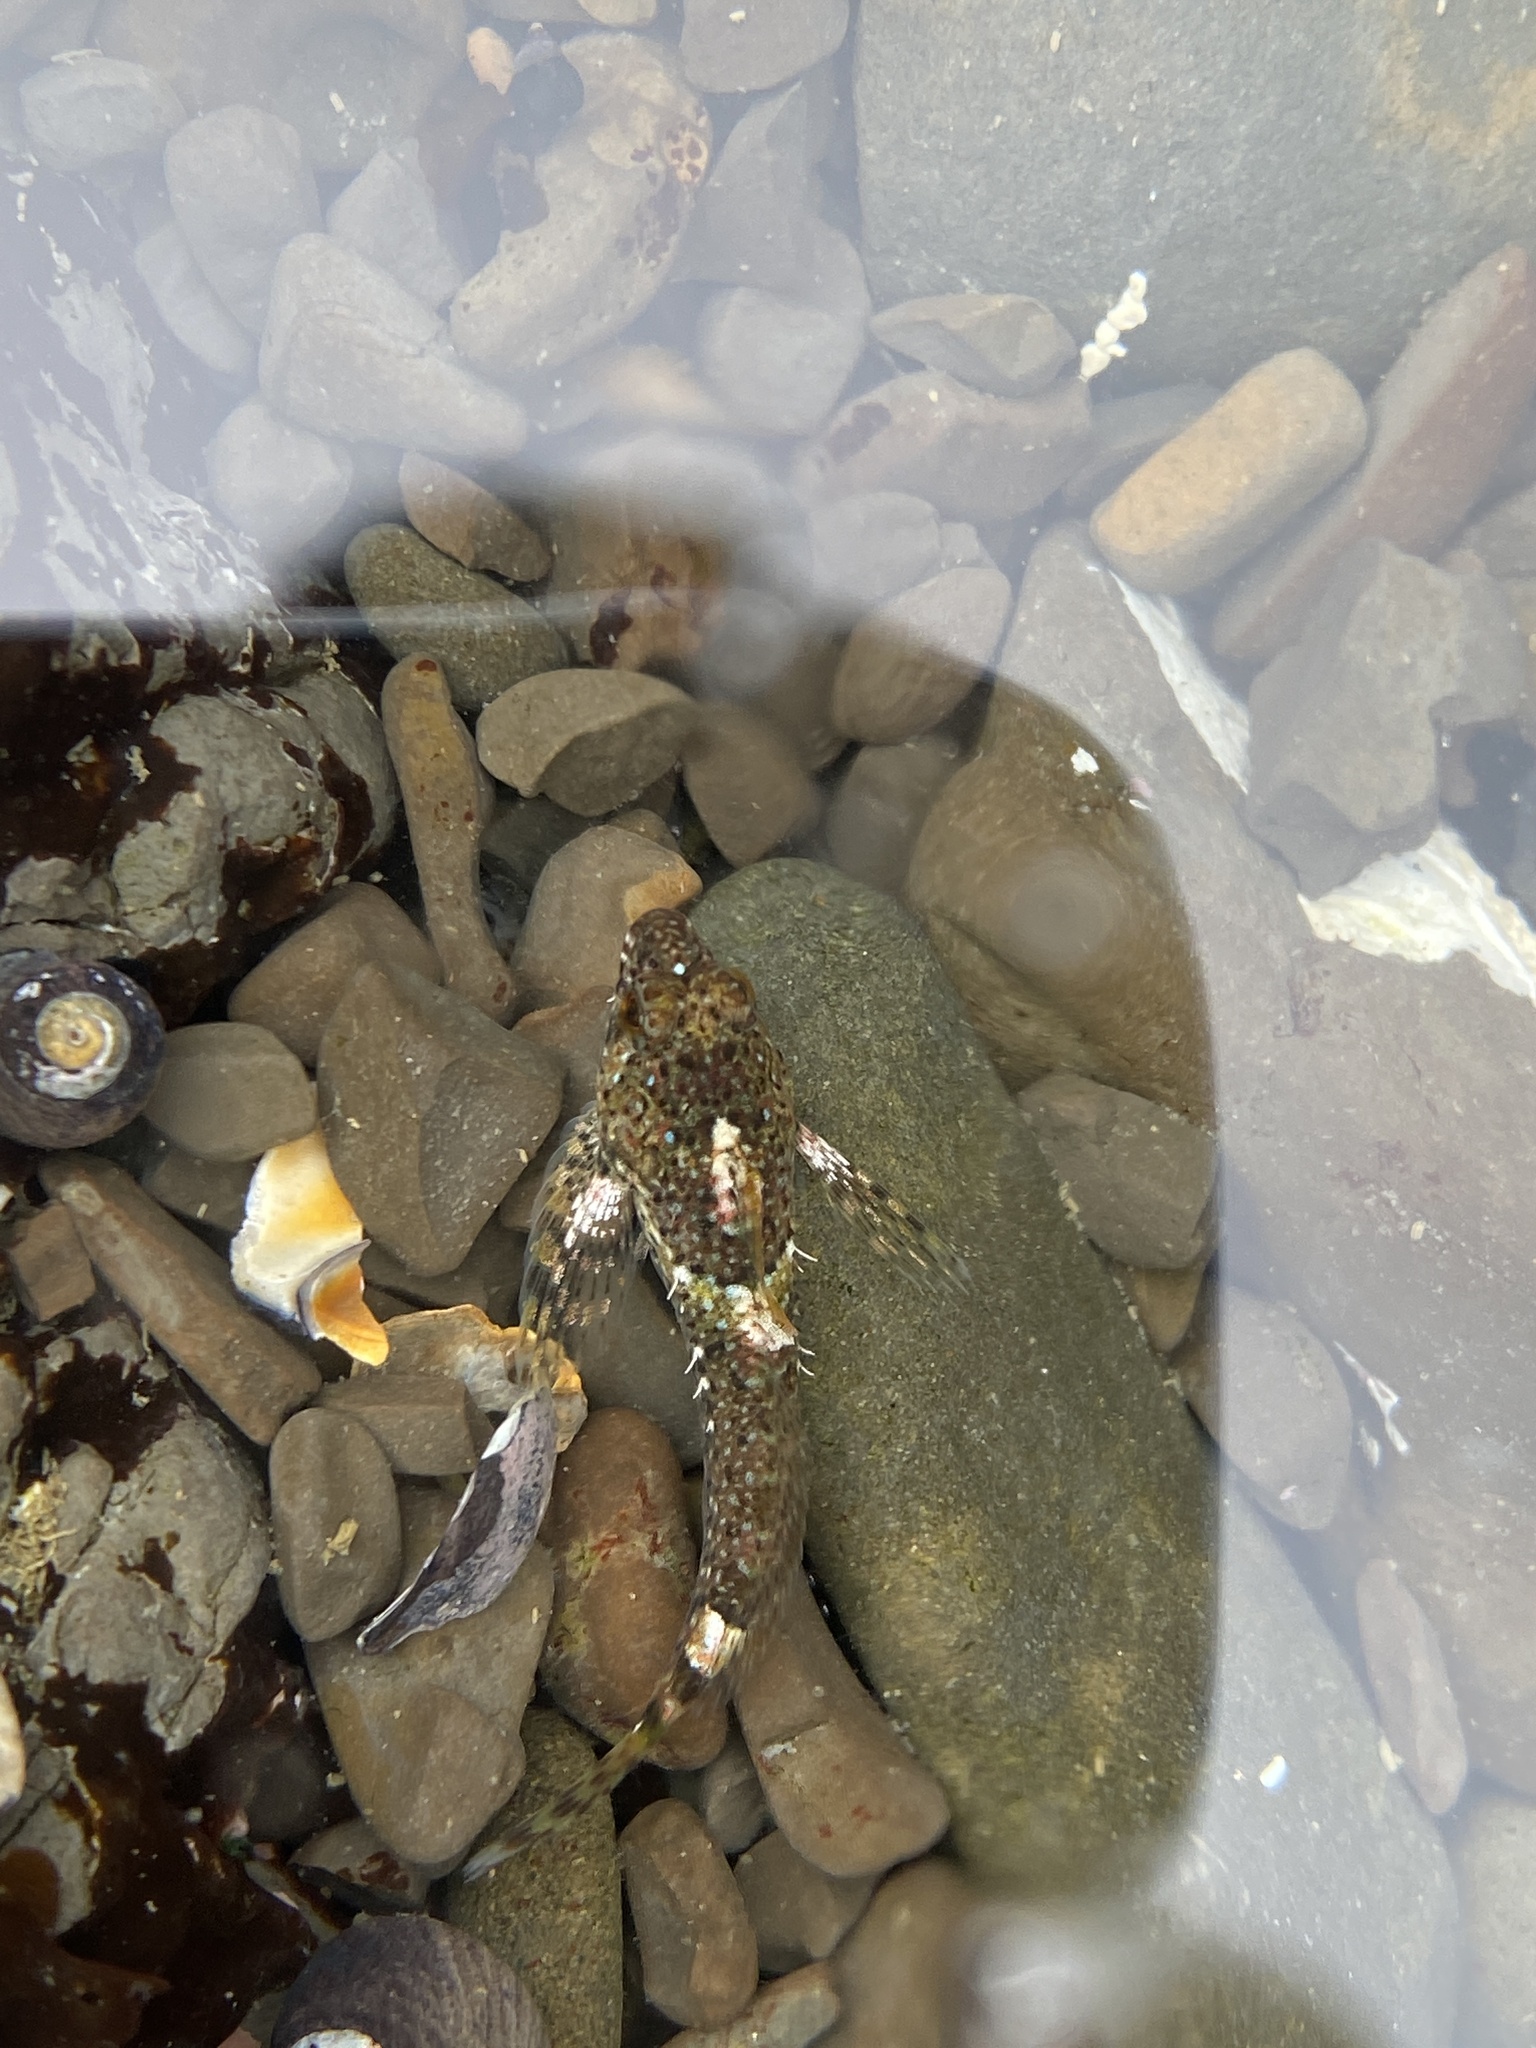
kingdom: Animalia
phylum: Chordata
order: Scorpaeniformes
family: Cottidae
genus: Clinocottus
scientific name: Clinocottus analis
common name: Woolly sculpin
